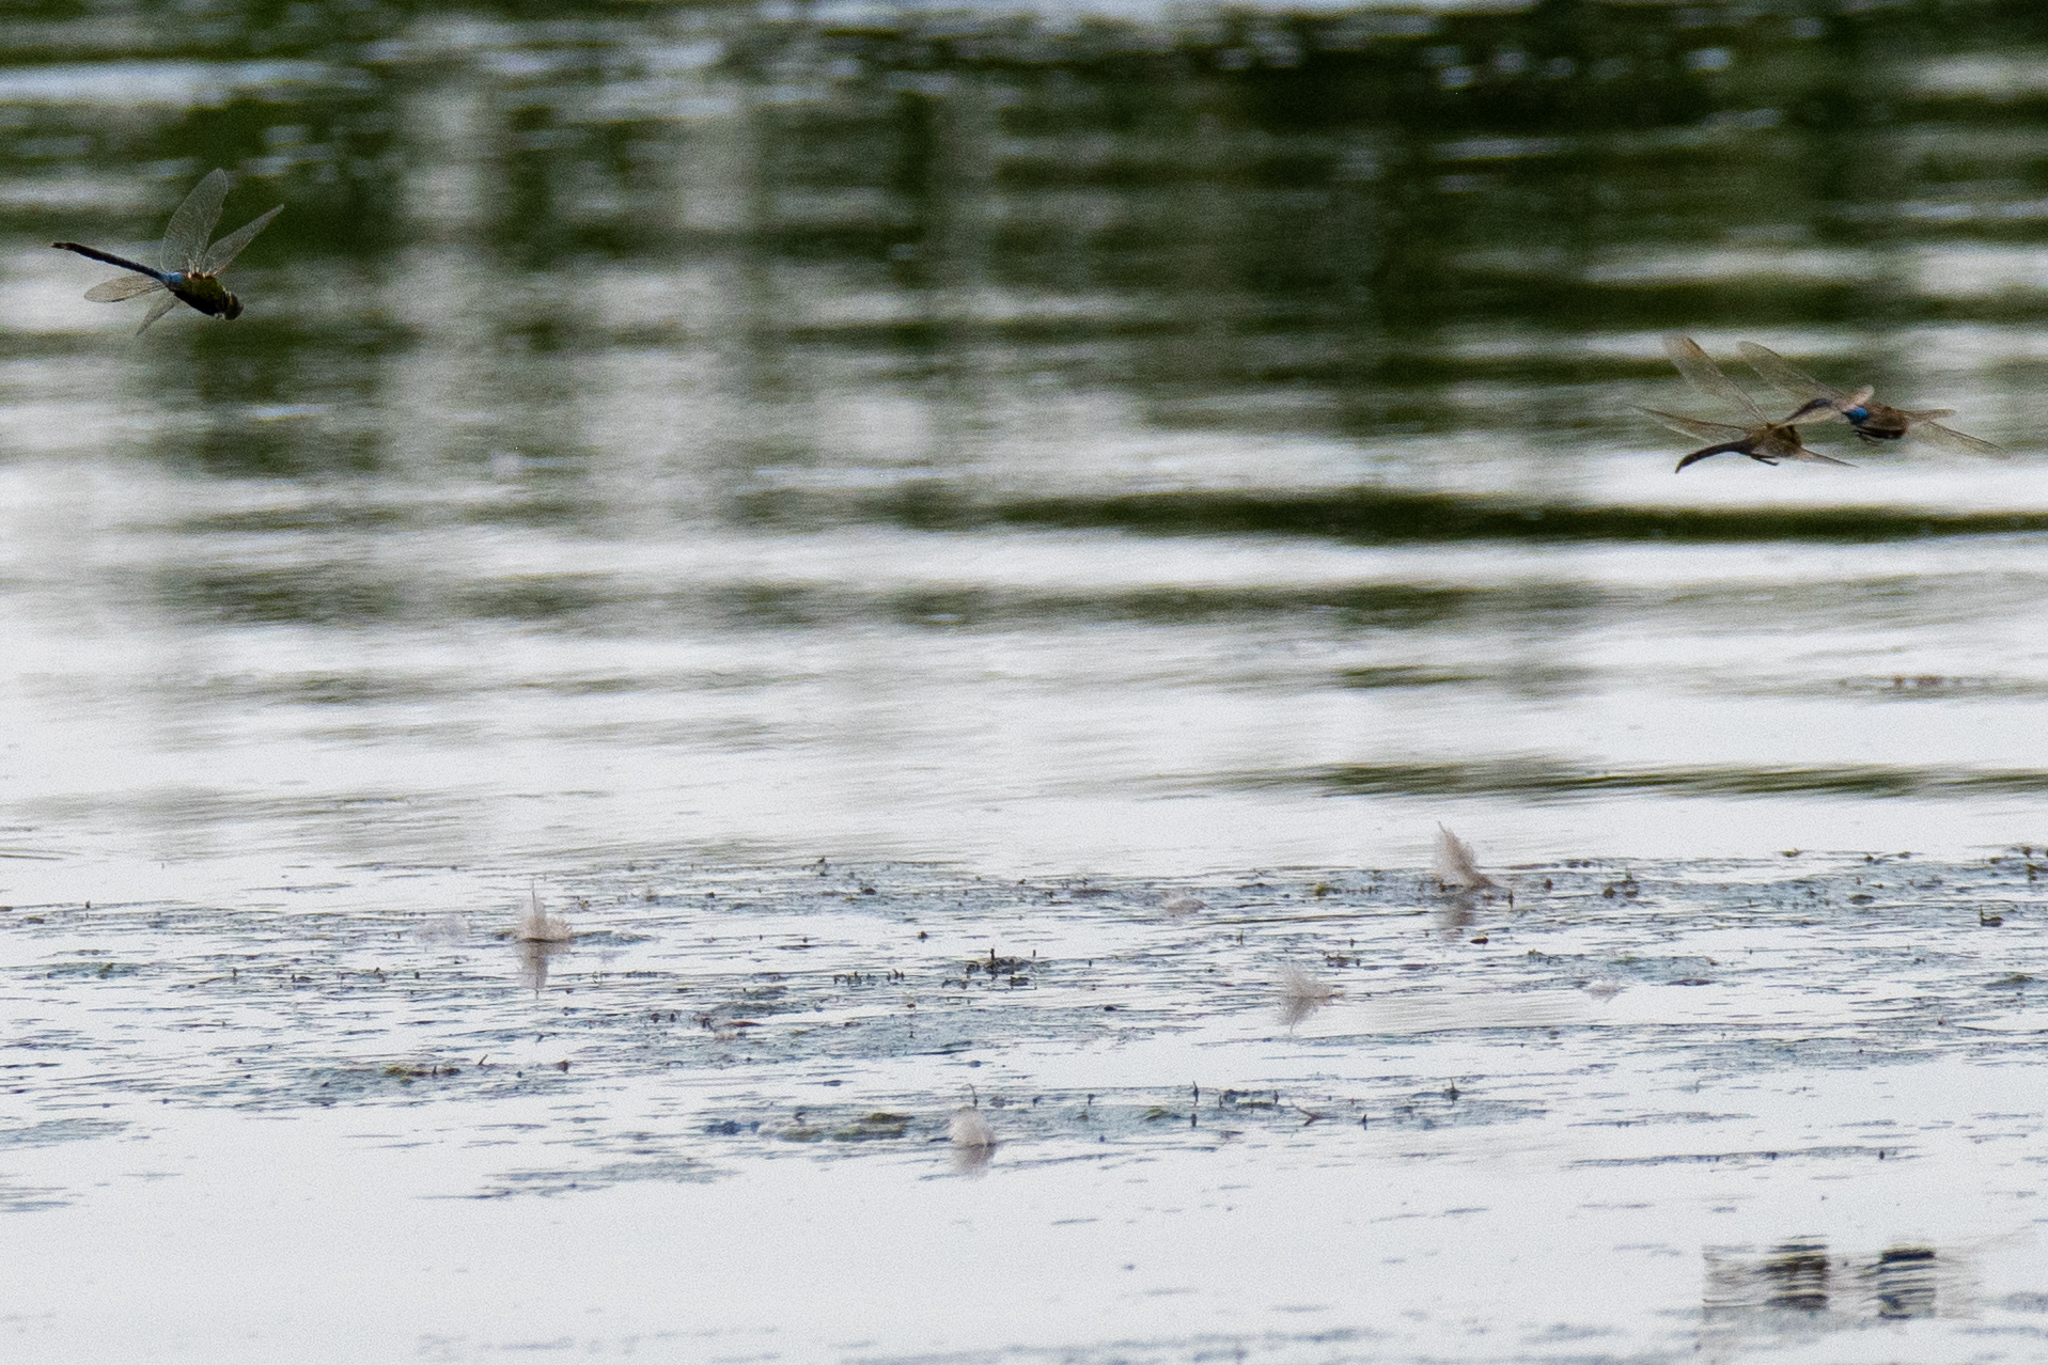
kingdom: Animalia
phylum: Arthropoda
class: Insecta
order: Odonata
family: Aeshnidae
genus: Anax
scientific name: Anax junius
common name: Common green darner
